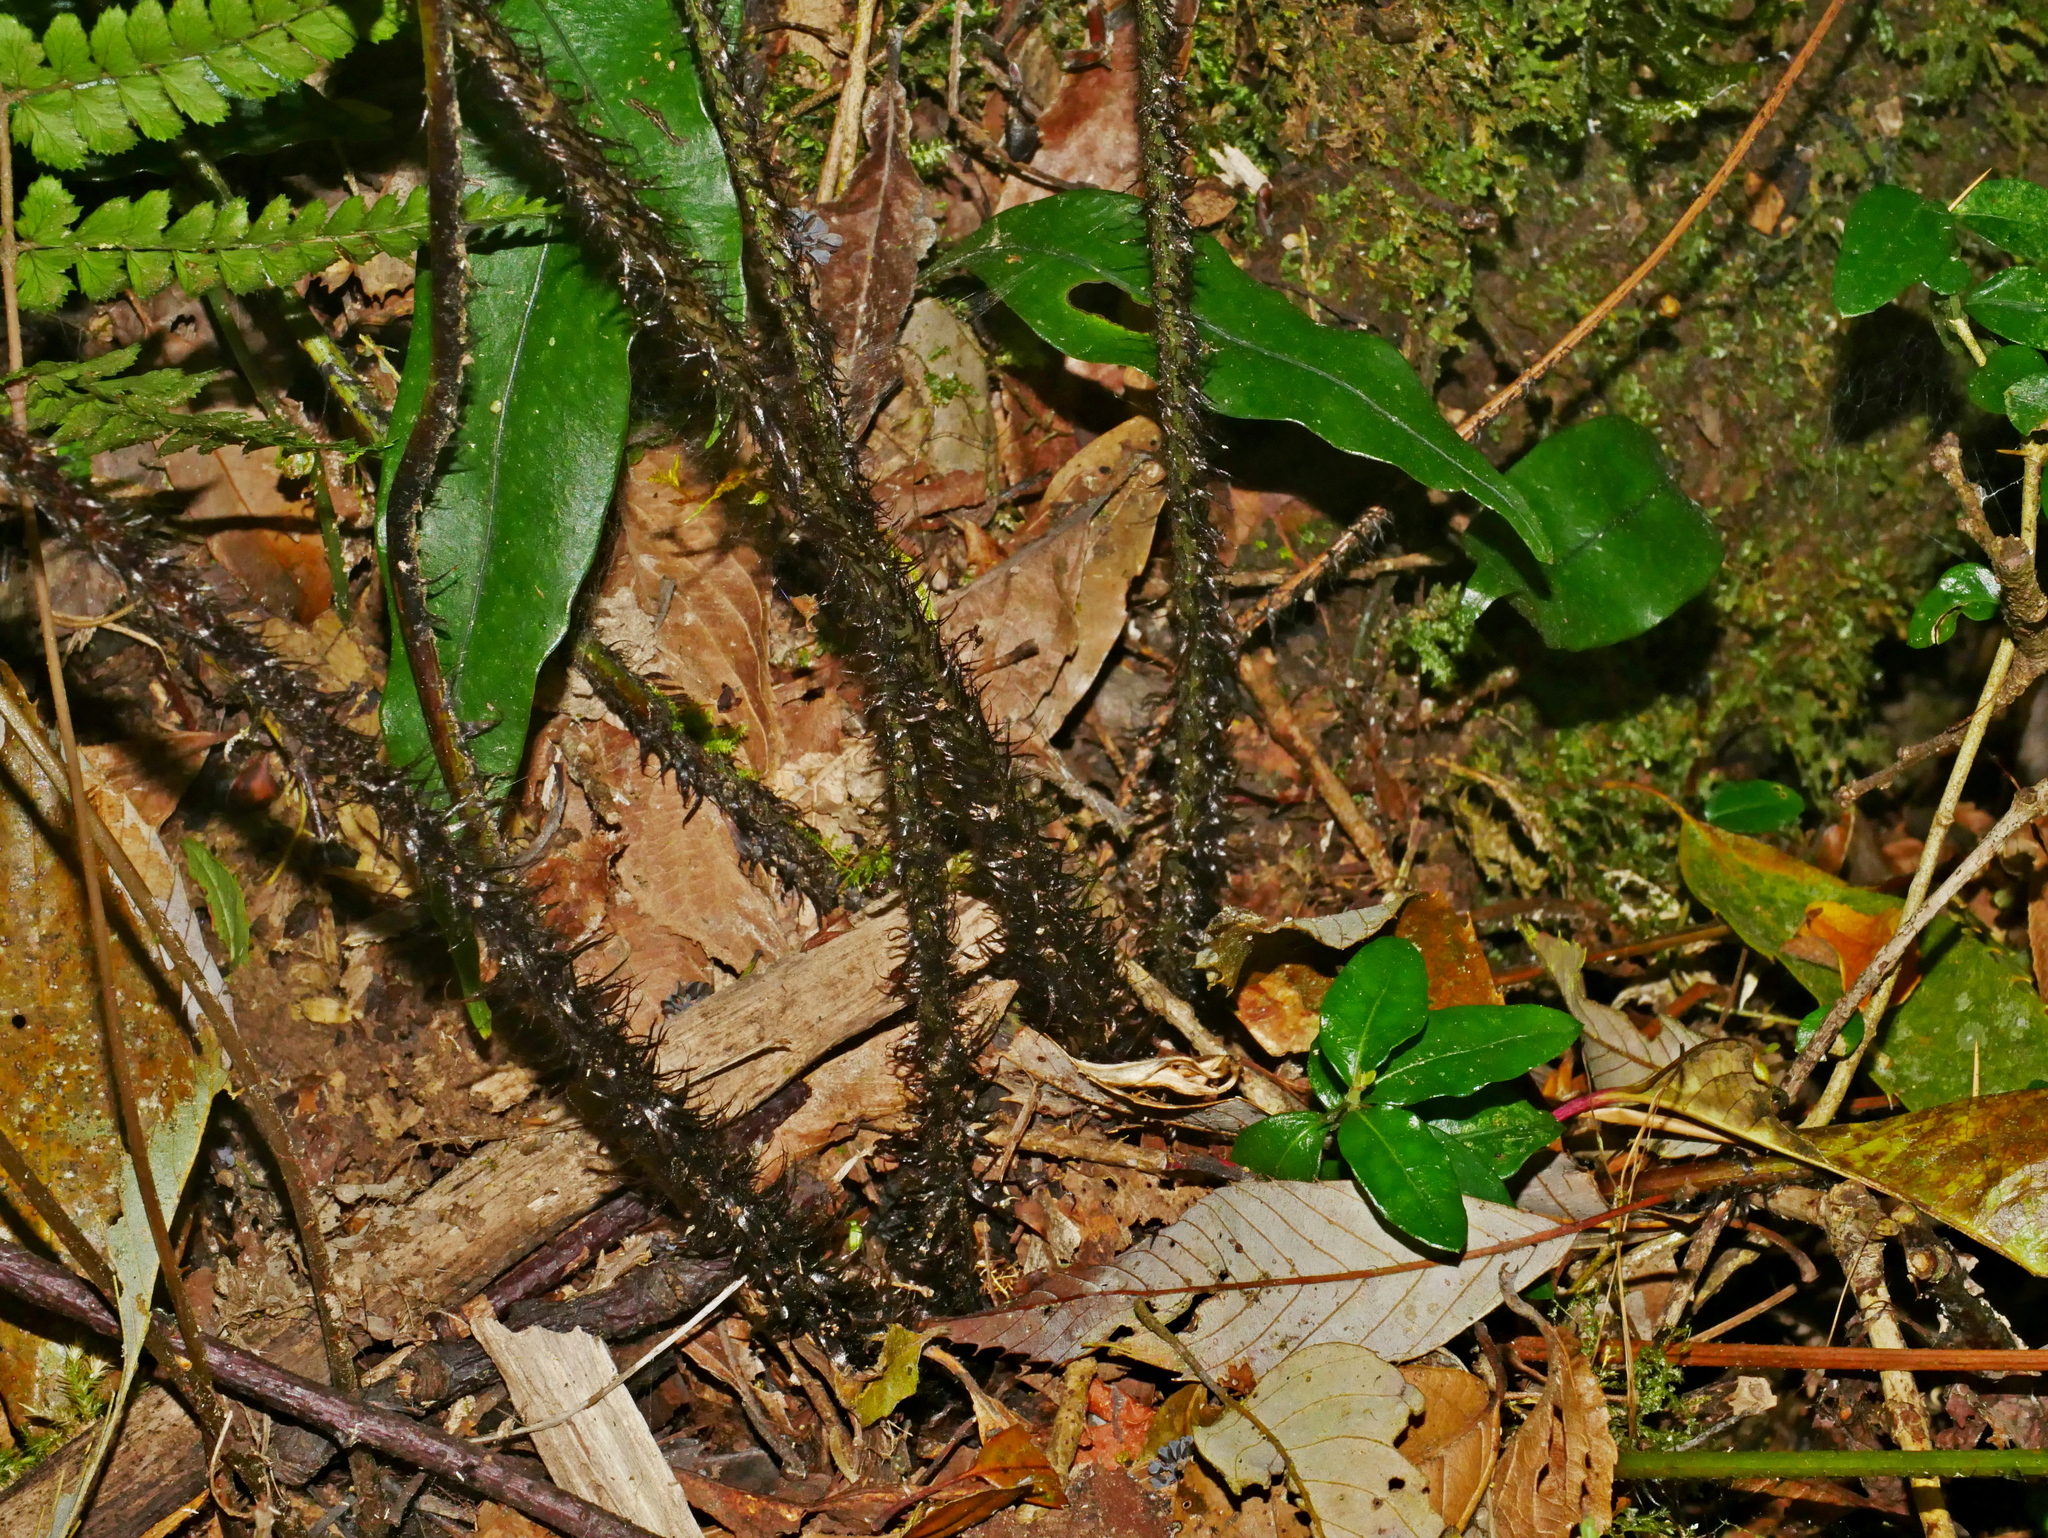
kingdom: Plantae
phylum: Tracheophyta
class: Polypodiopsida
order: Polypodiales
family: Dryopteridaceae
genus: Dryopteris
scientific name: Dryopteris stenolepis
